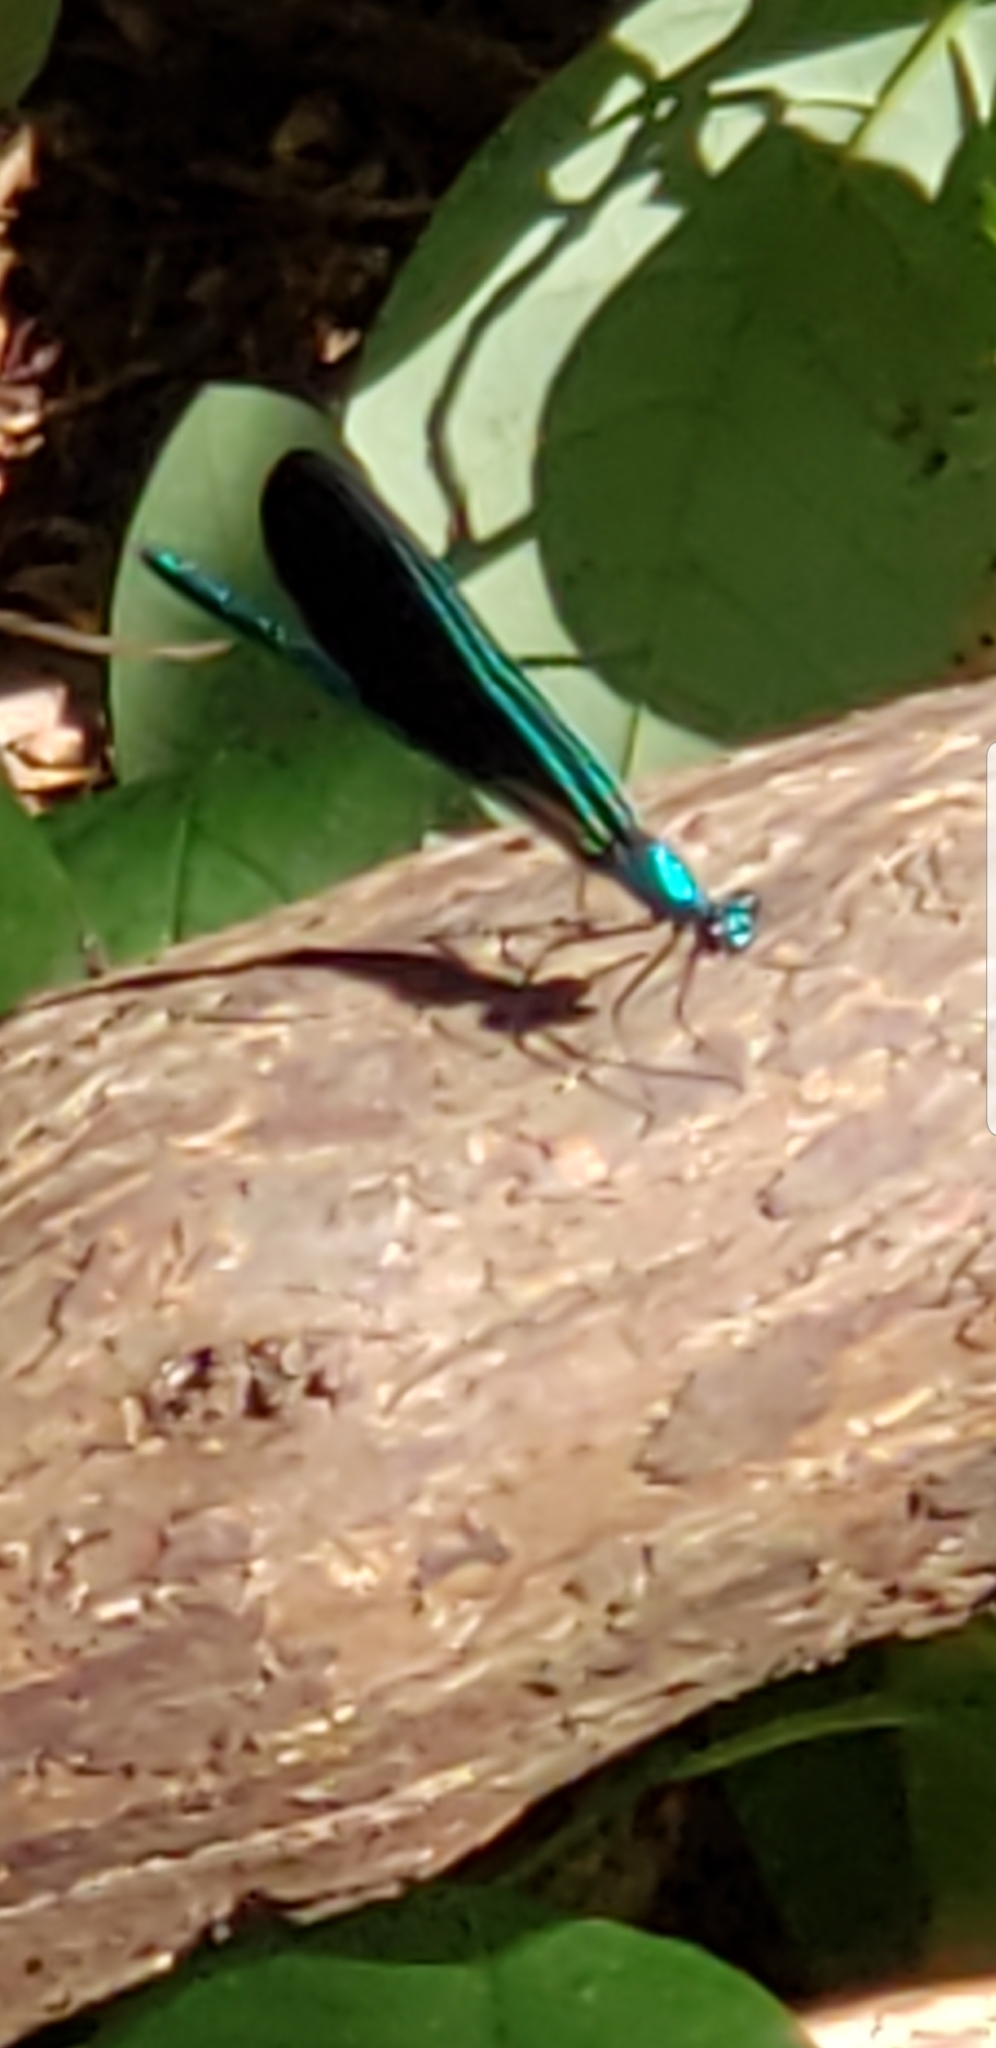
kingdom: Animalia
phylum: Arthropoda
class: Insecta
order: Odonata
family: Calopterygidae
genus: Calopteryx
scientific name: Calopteryx maculata
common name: Ebony jewelwing
